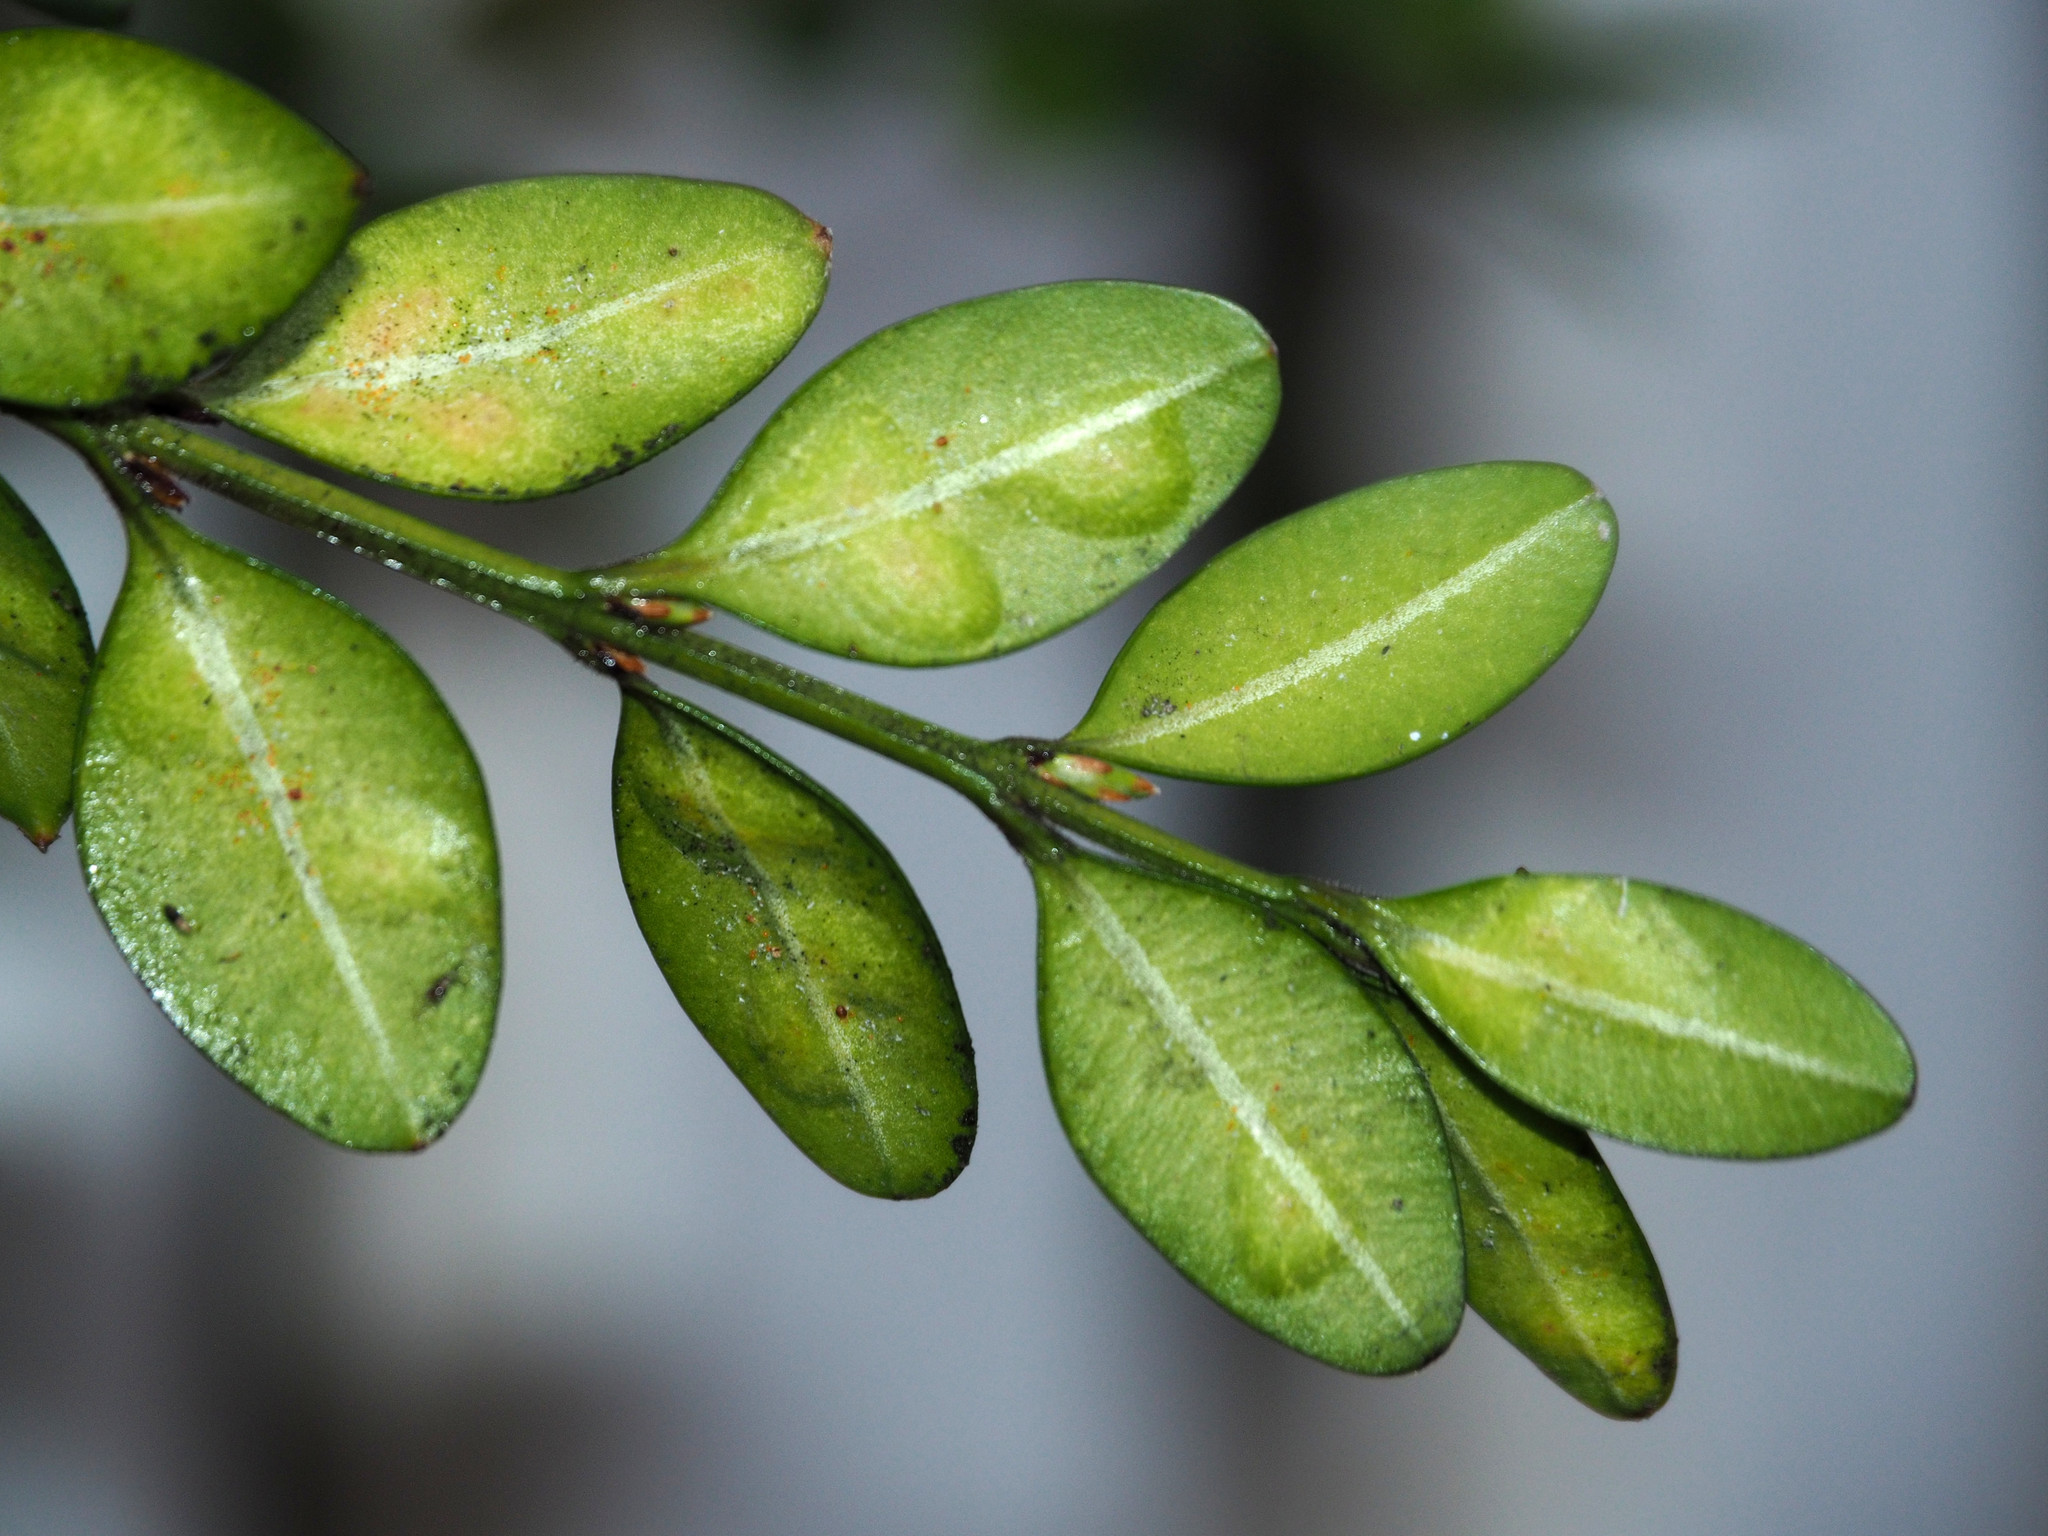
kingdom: Animalia
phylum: Arthropoda
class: Insecta
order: Diptera
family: Cecidomyiidae
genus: Monarthropalpus
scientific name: Monarthropalpus flavus
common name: Boxwood leafminer
